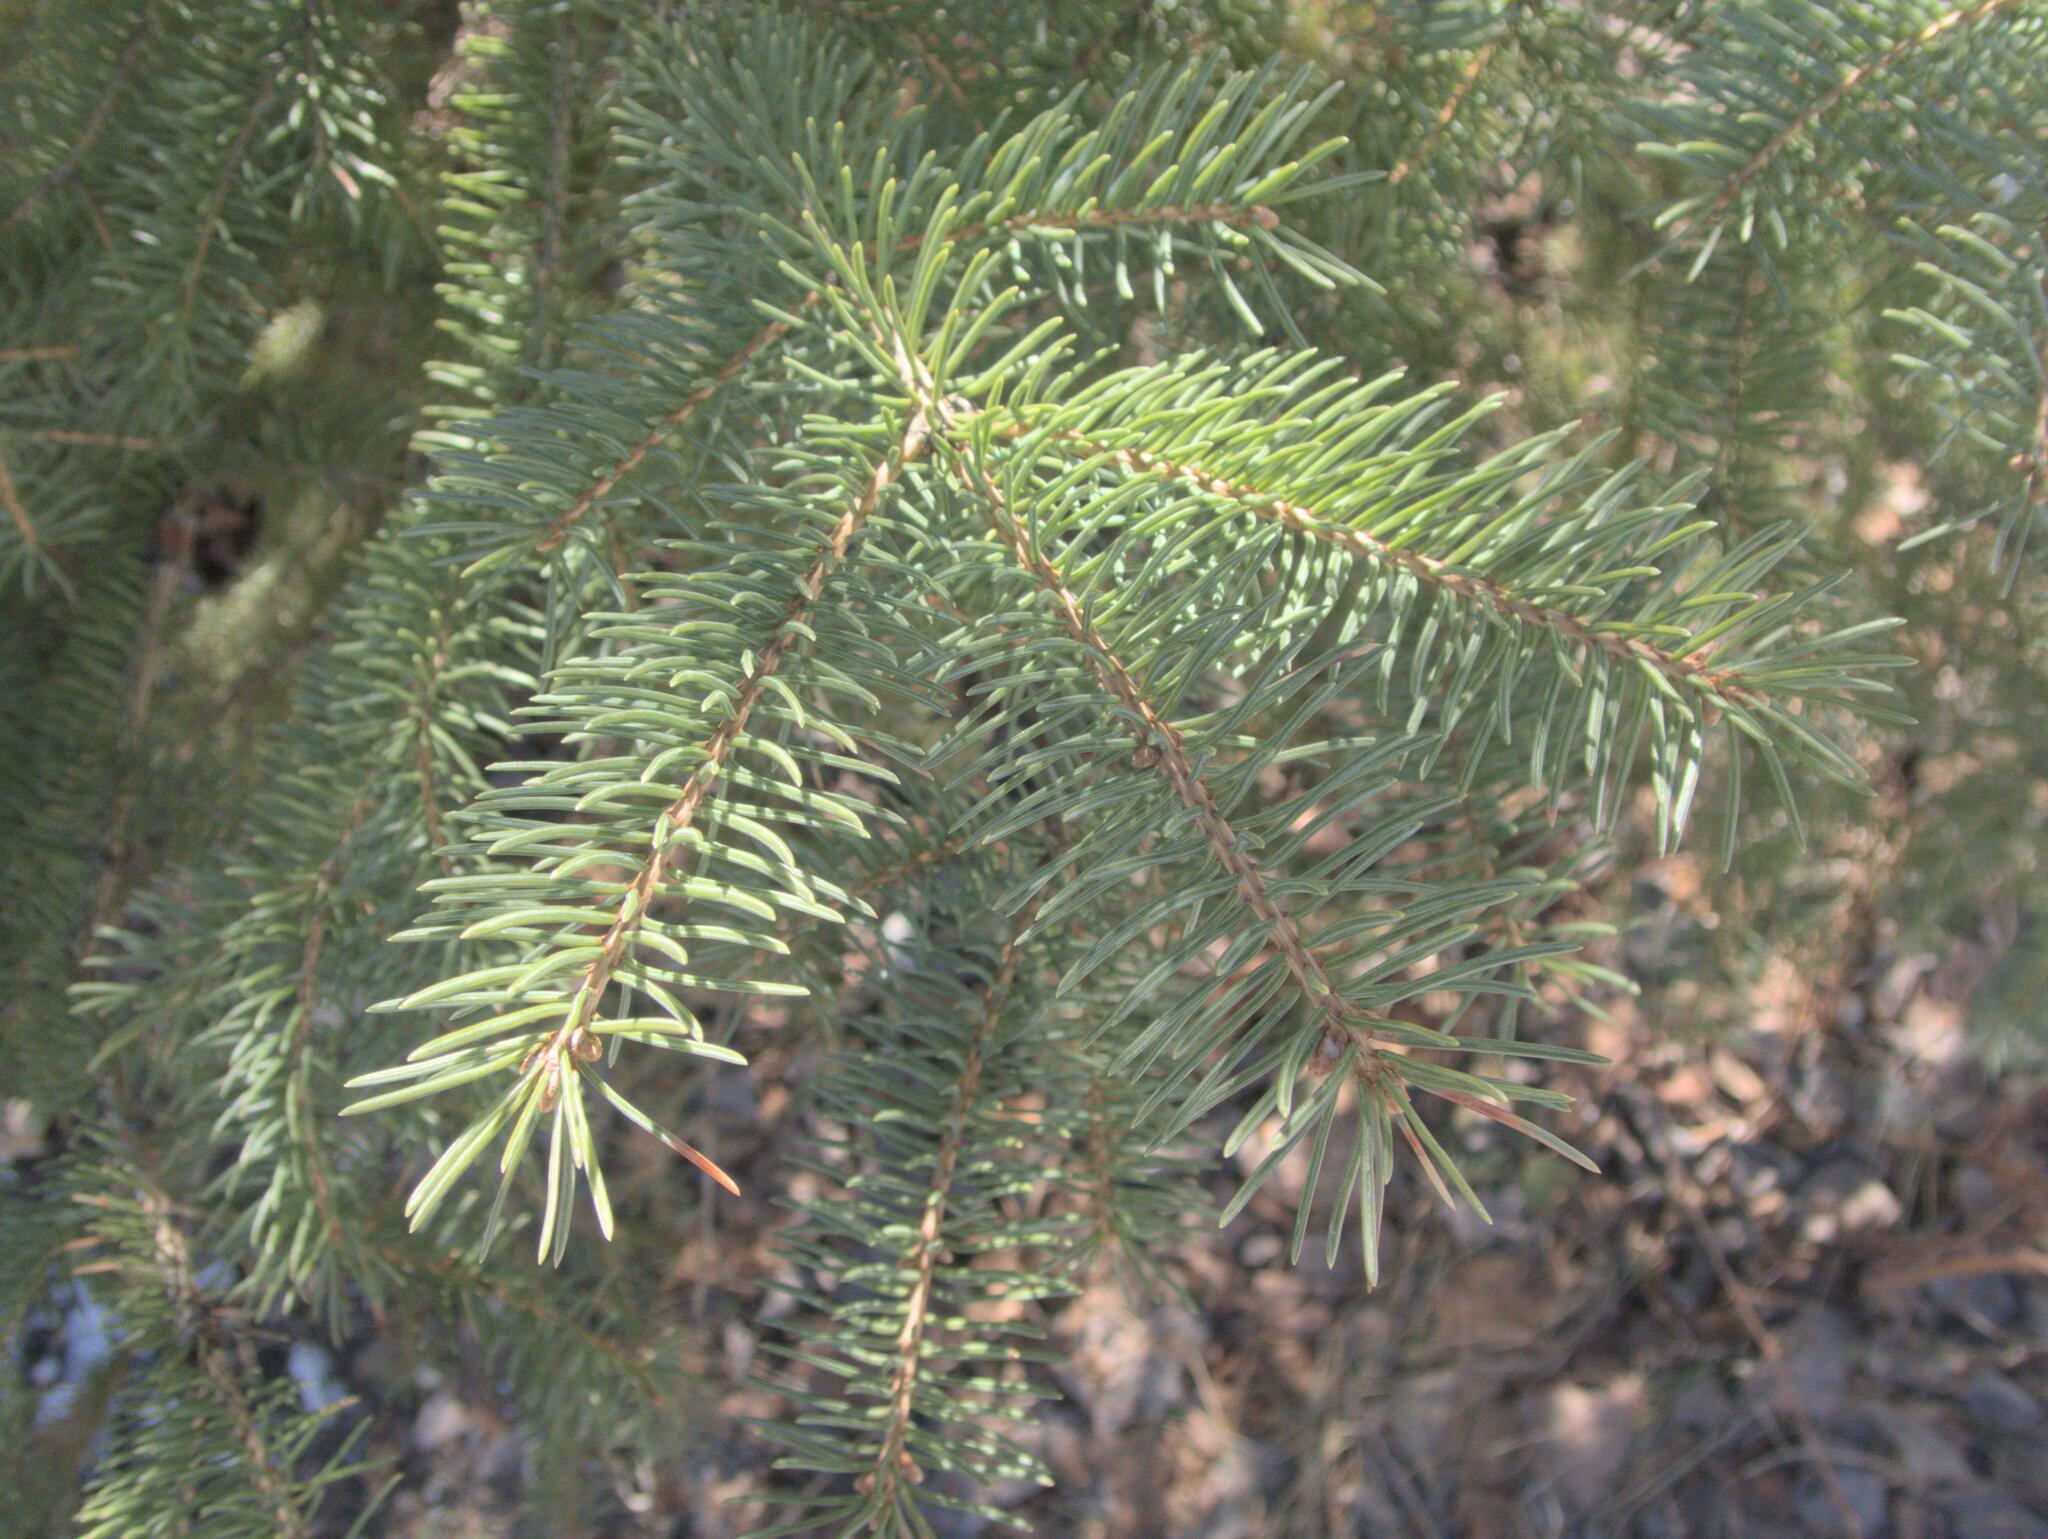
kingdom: Plantae
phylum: Tracheophyta
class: Pinopsida
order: Pinales
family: Pinaceae
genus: Picea
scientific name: Picea glauca
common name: White spruce
